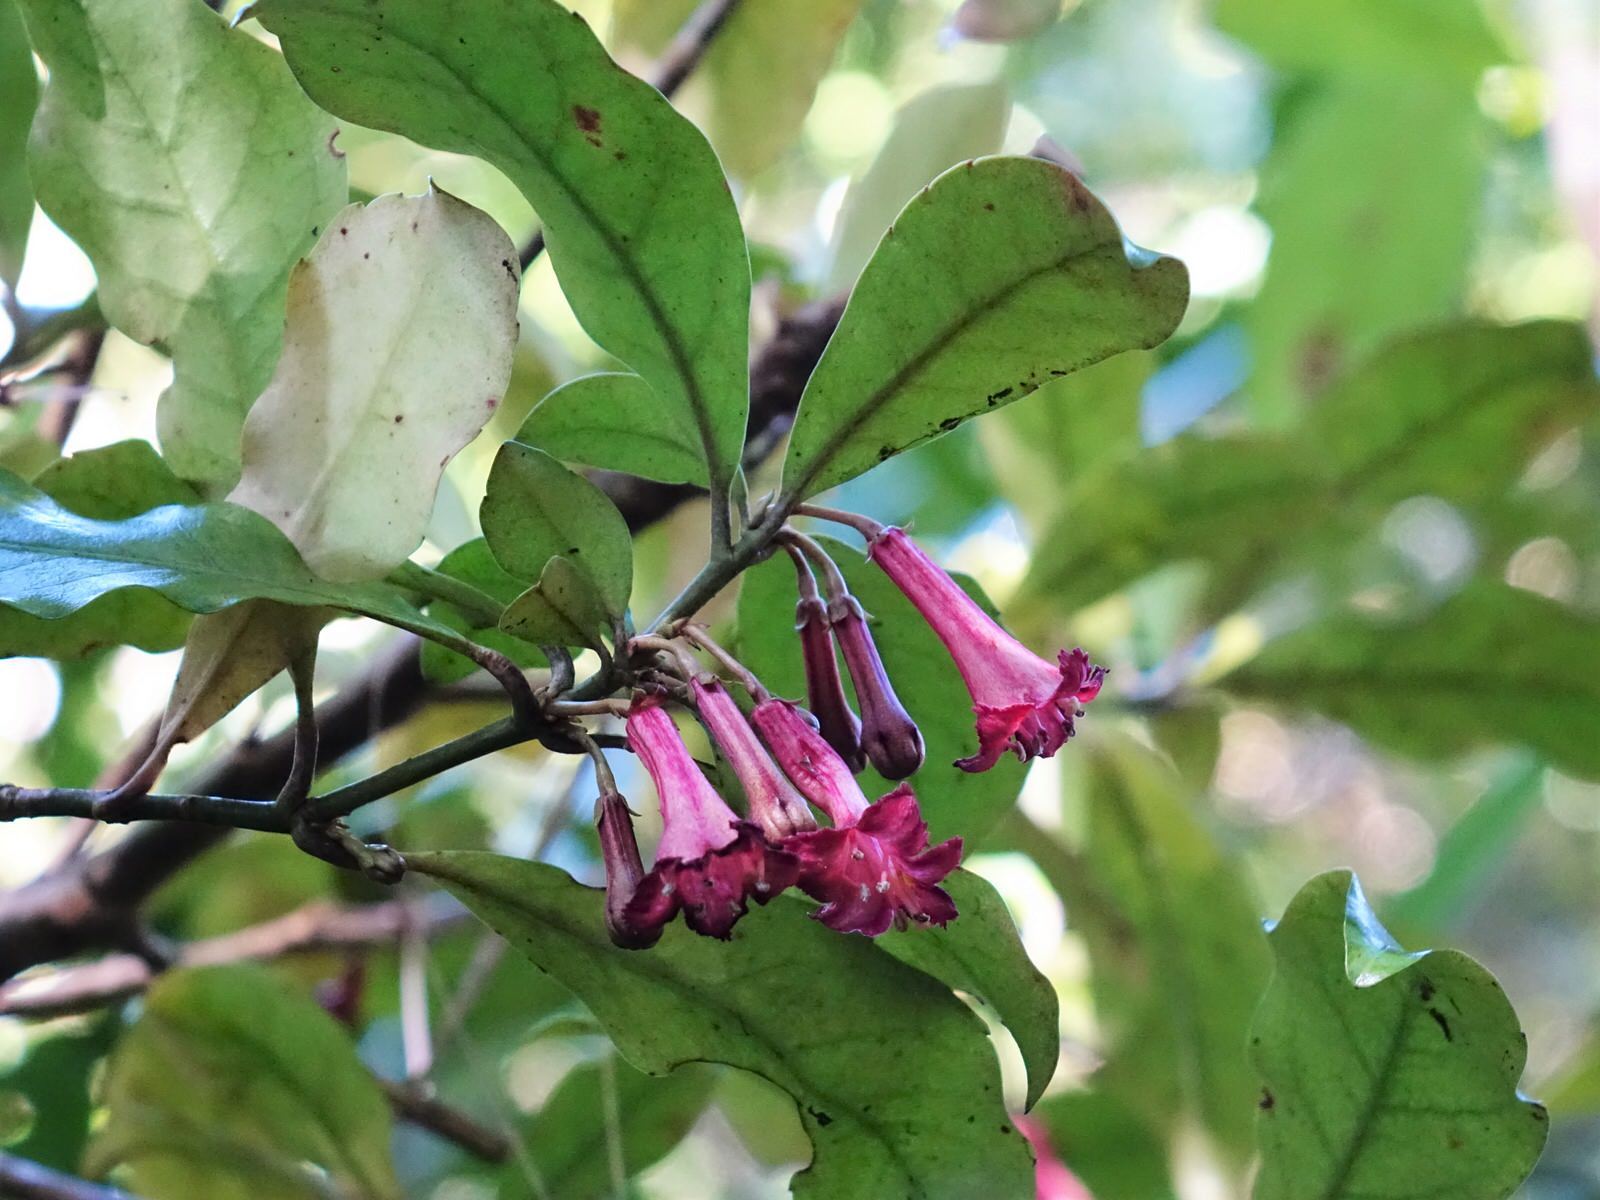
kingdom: Plantae
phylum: Tracheophyta
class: Magnoliopsida
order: Asterales
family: Alseuosmiaceae
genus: Alseuosmia
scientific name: Alseuosmia macrophylla
